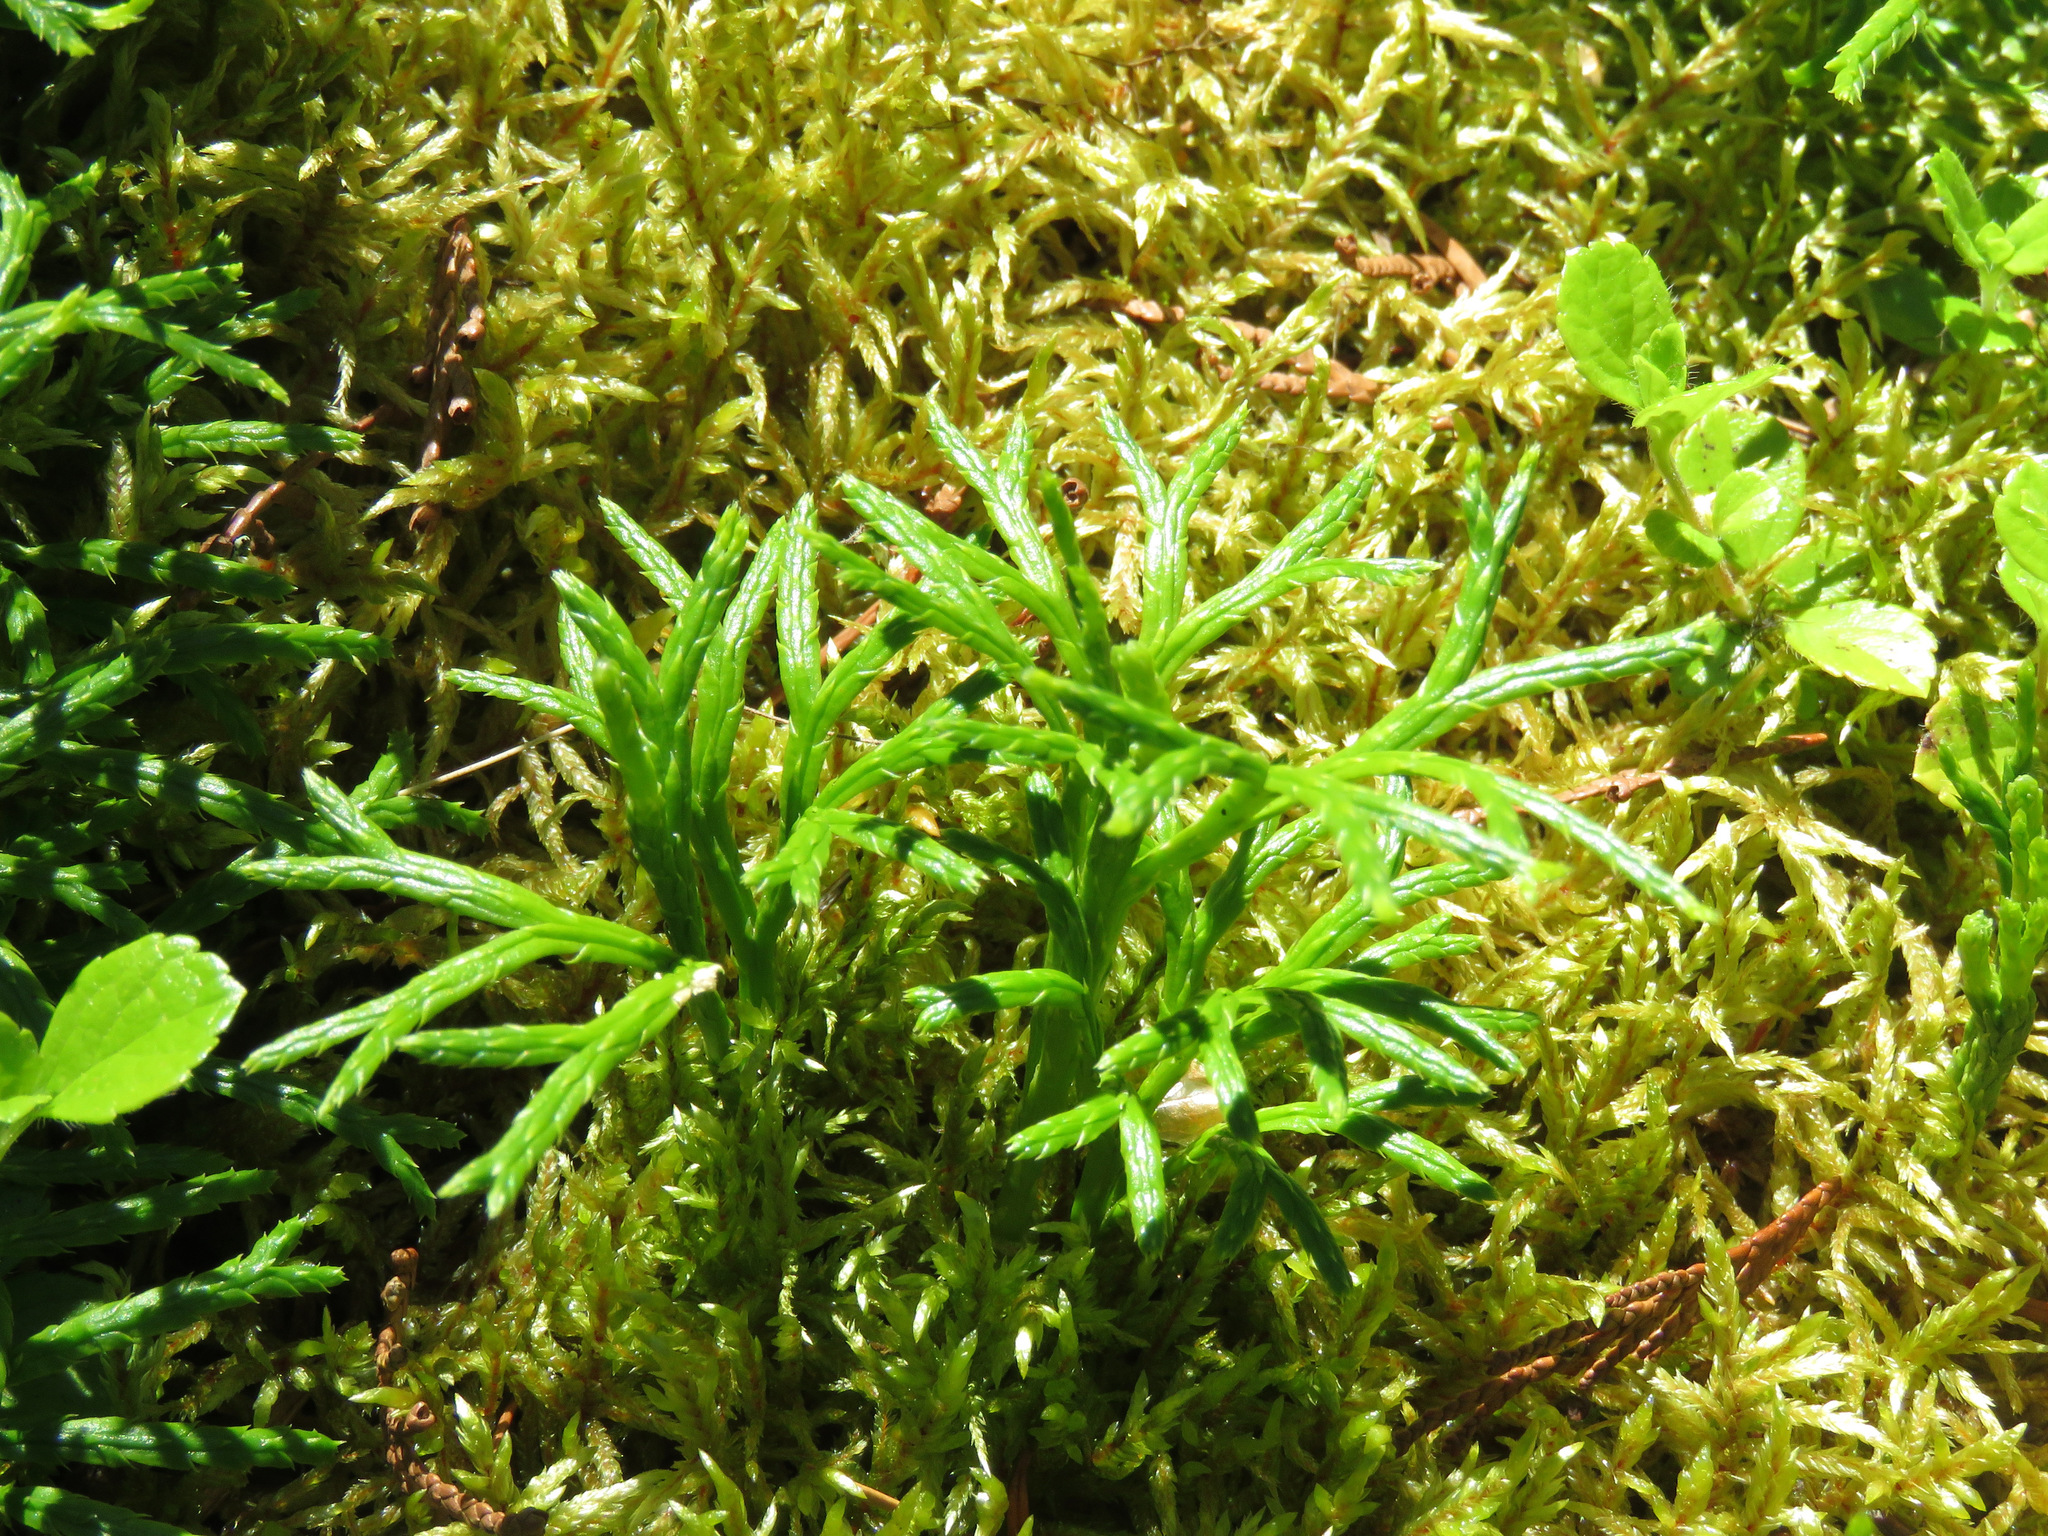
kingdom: Plantae
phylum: Tracheophyta
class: Lycopodiopsida
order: Lycopodiales
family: Lycopodiaceae
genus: Diphasiastrum
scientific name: Diphasiastrum complanatum
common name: Northern running-pine
